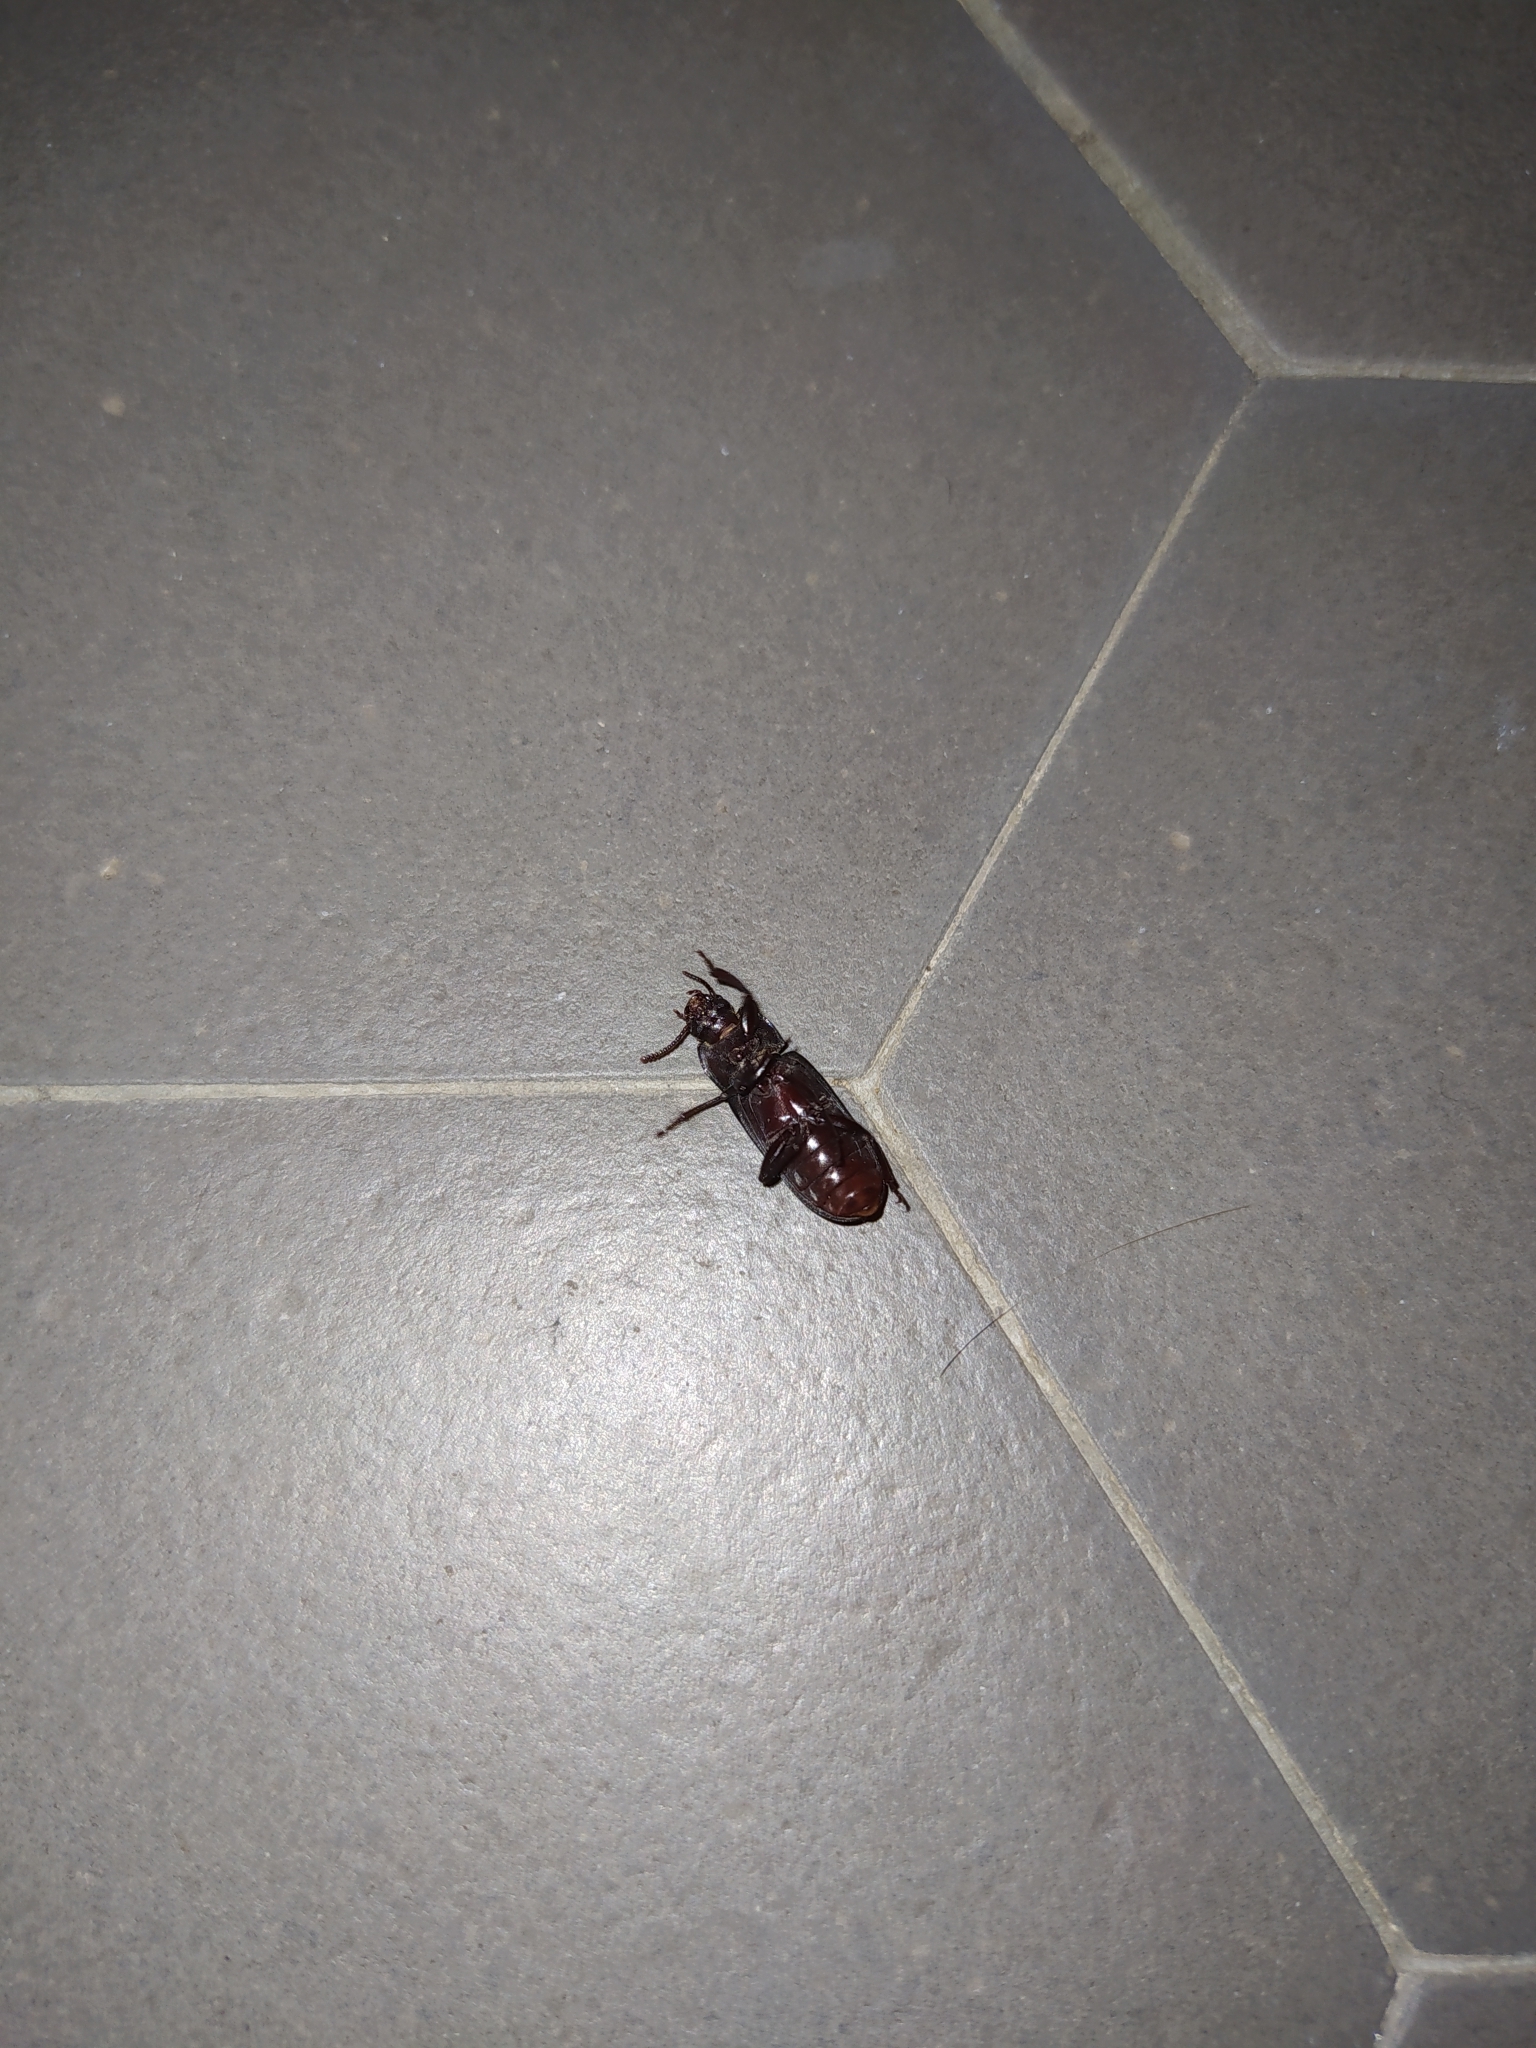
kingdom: Animalia
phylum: Arthropoda
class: Insecta
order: Coleoptera
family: Tenebrionidae
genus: Tenebrio
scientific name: Tenebrio molitor
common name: Hardback beetle
